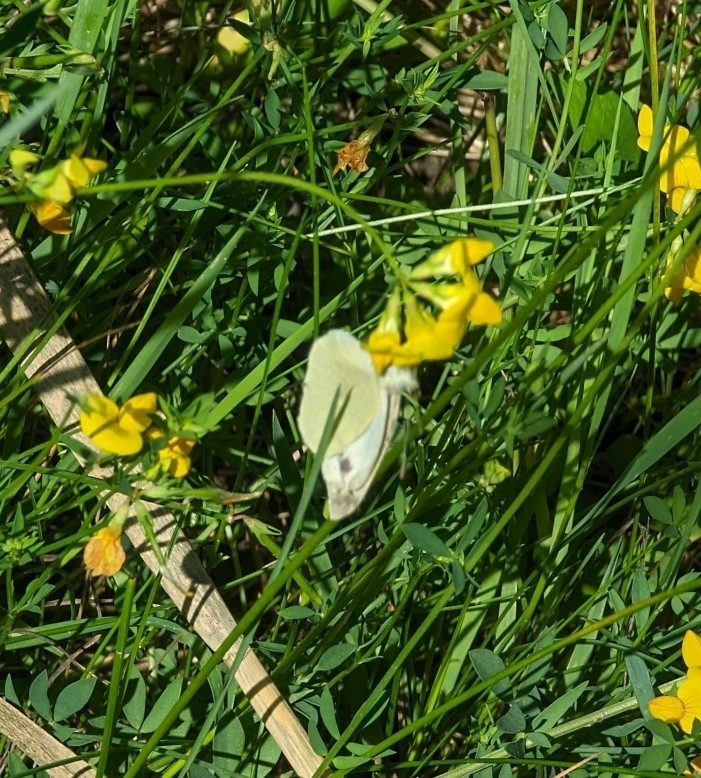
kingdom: Animalia
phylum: Arthropoda
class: Insecta
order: Lepidoptera
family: Pieridae
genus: Pieris
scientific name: Pieris rapae
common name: Small white
